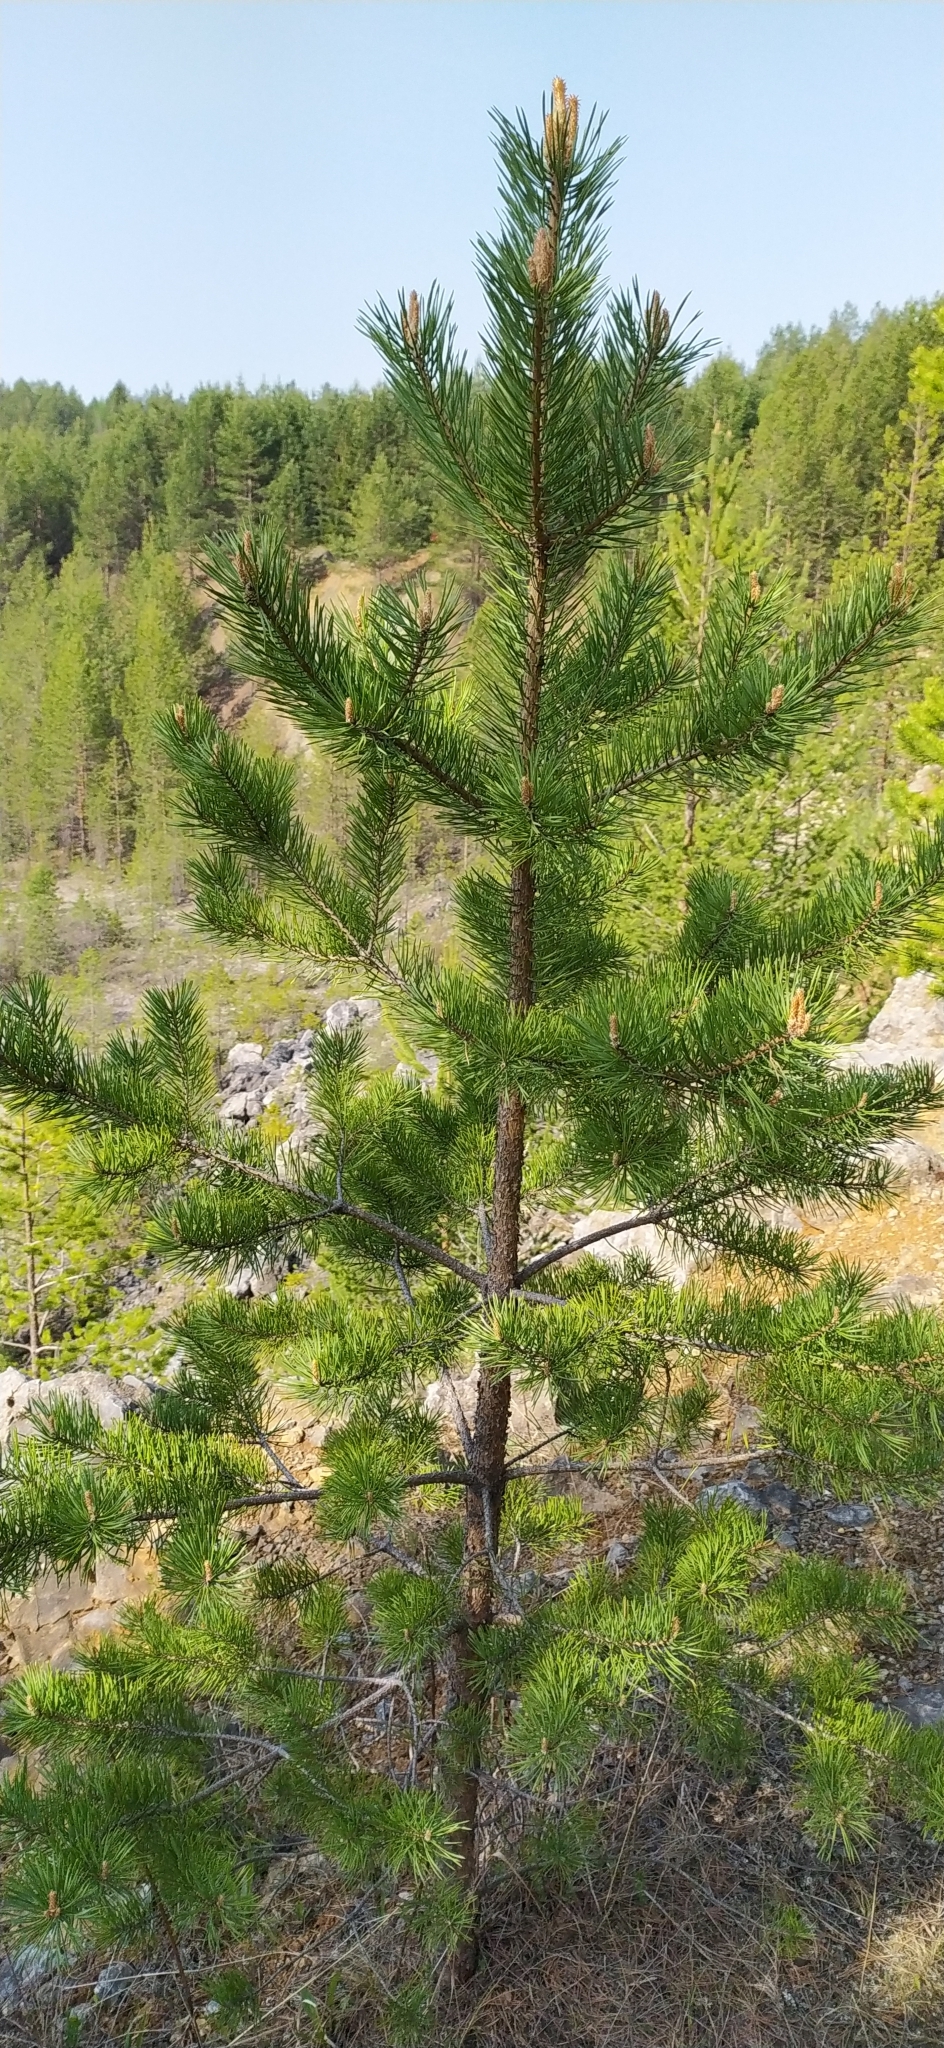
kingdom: Plantae
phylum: Tracheophyta
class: Pinopsida
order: Pinales
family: Pinaceae
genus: Pinus
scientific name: Pinus sylvestris
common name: Scots pine
